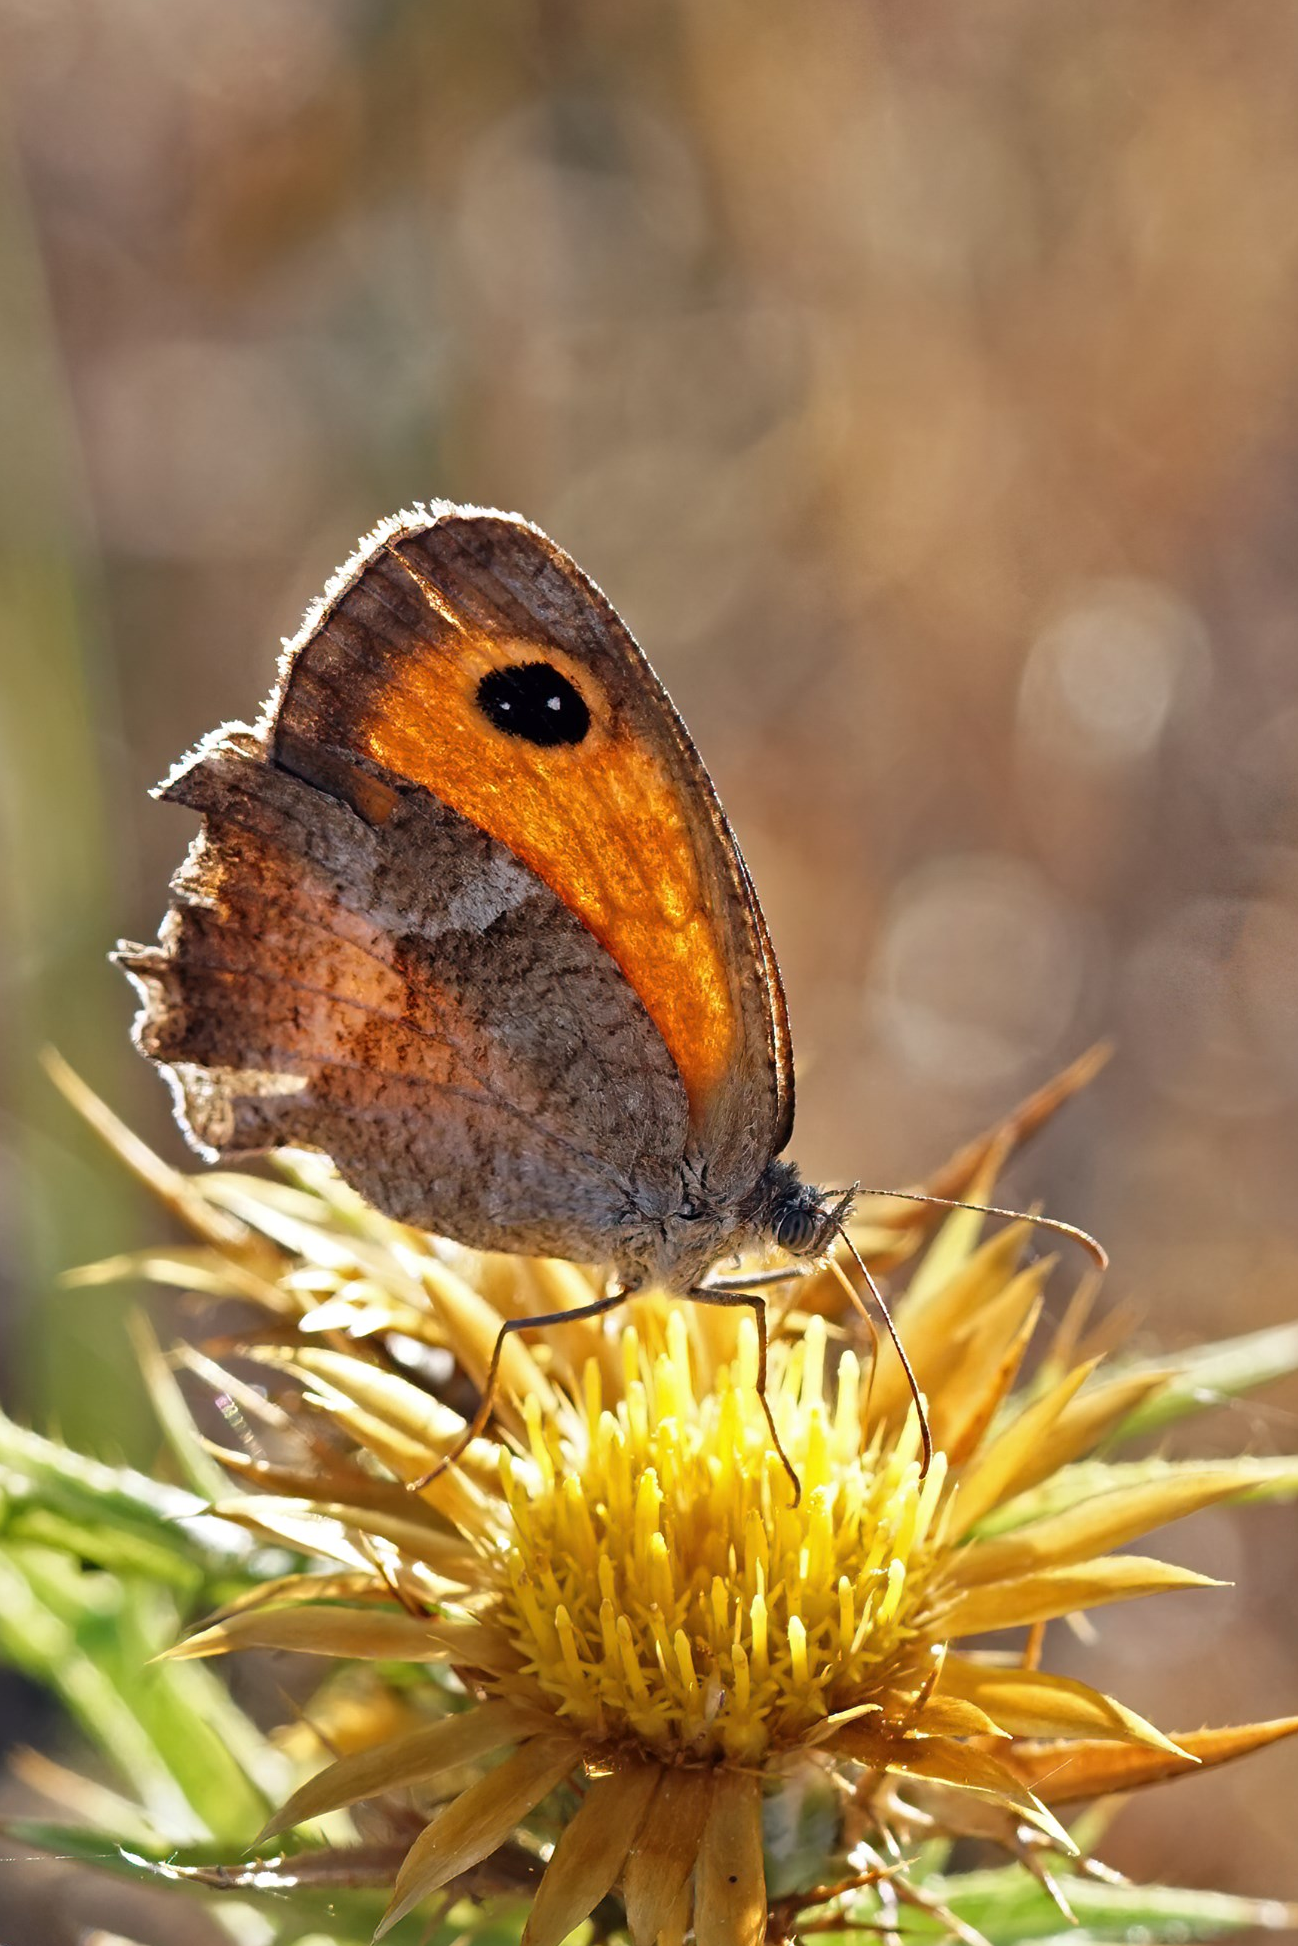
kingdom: Animalia
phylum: Arthropoda
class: Insecta
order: Lepidoptera
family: Nymphalidae
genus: Pyronia
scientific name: Pyronia cecilia
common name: Southern gatekeeper
